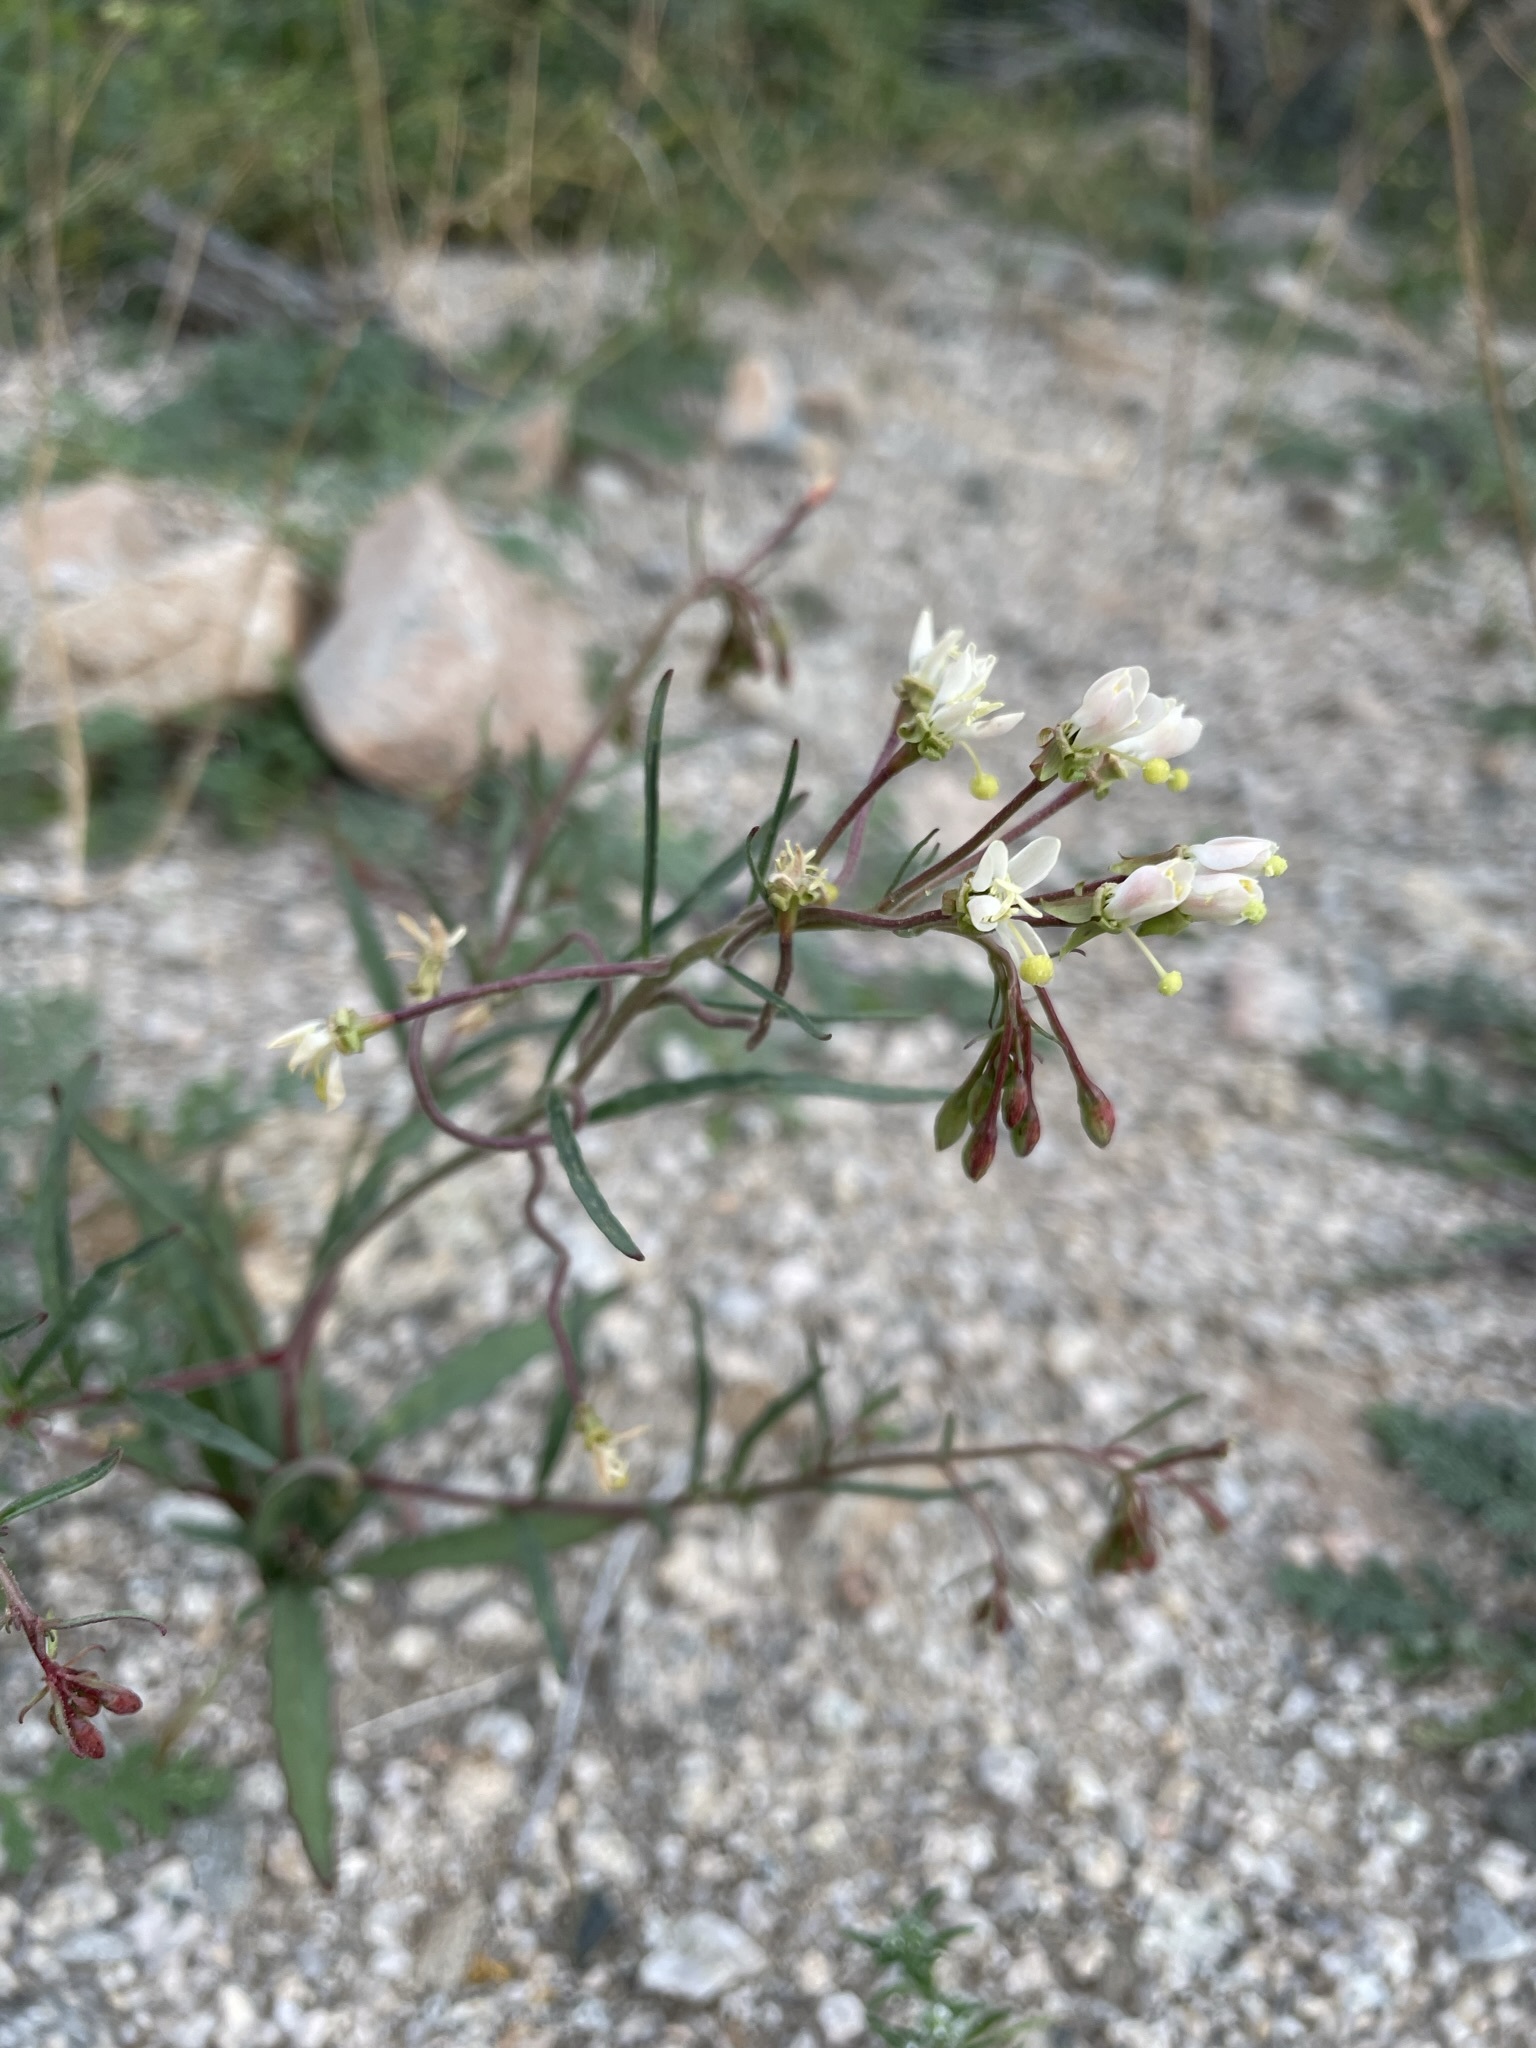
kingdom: Plantae
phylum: Tracheophyta
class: Magnoliopsida
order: Myrtales
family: Onagraceae
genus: Eremothera
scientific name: Eremothera refracta
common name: Narrowleaf suncup
